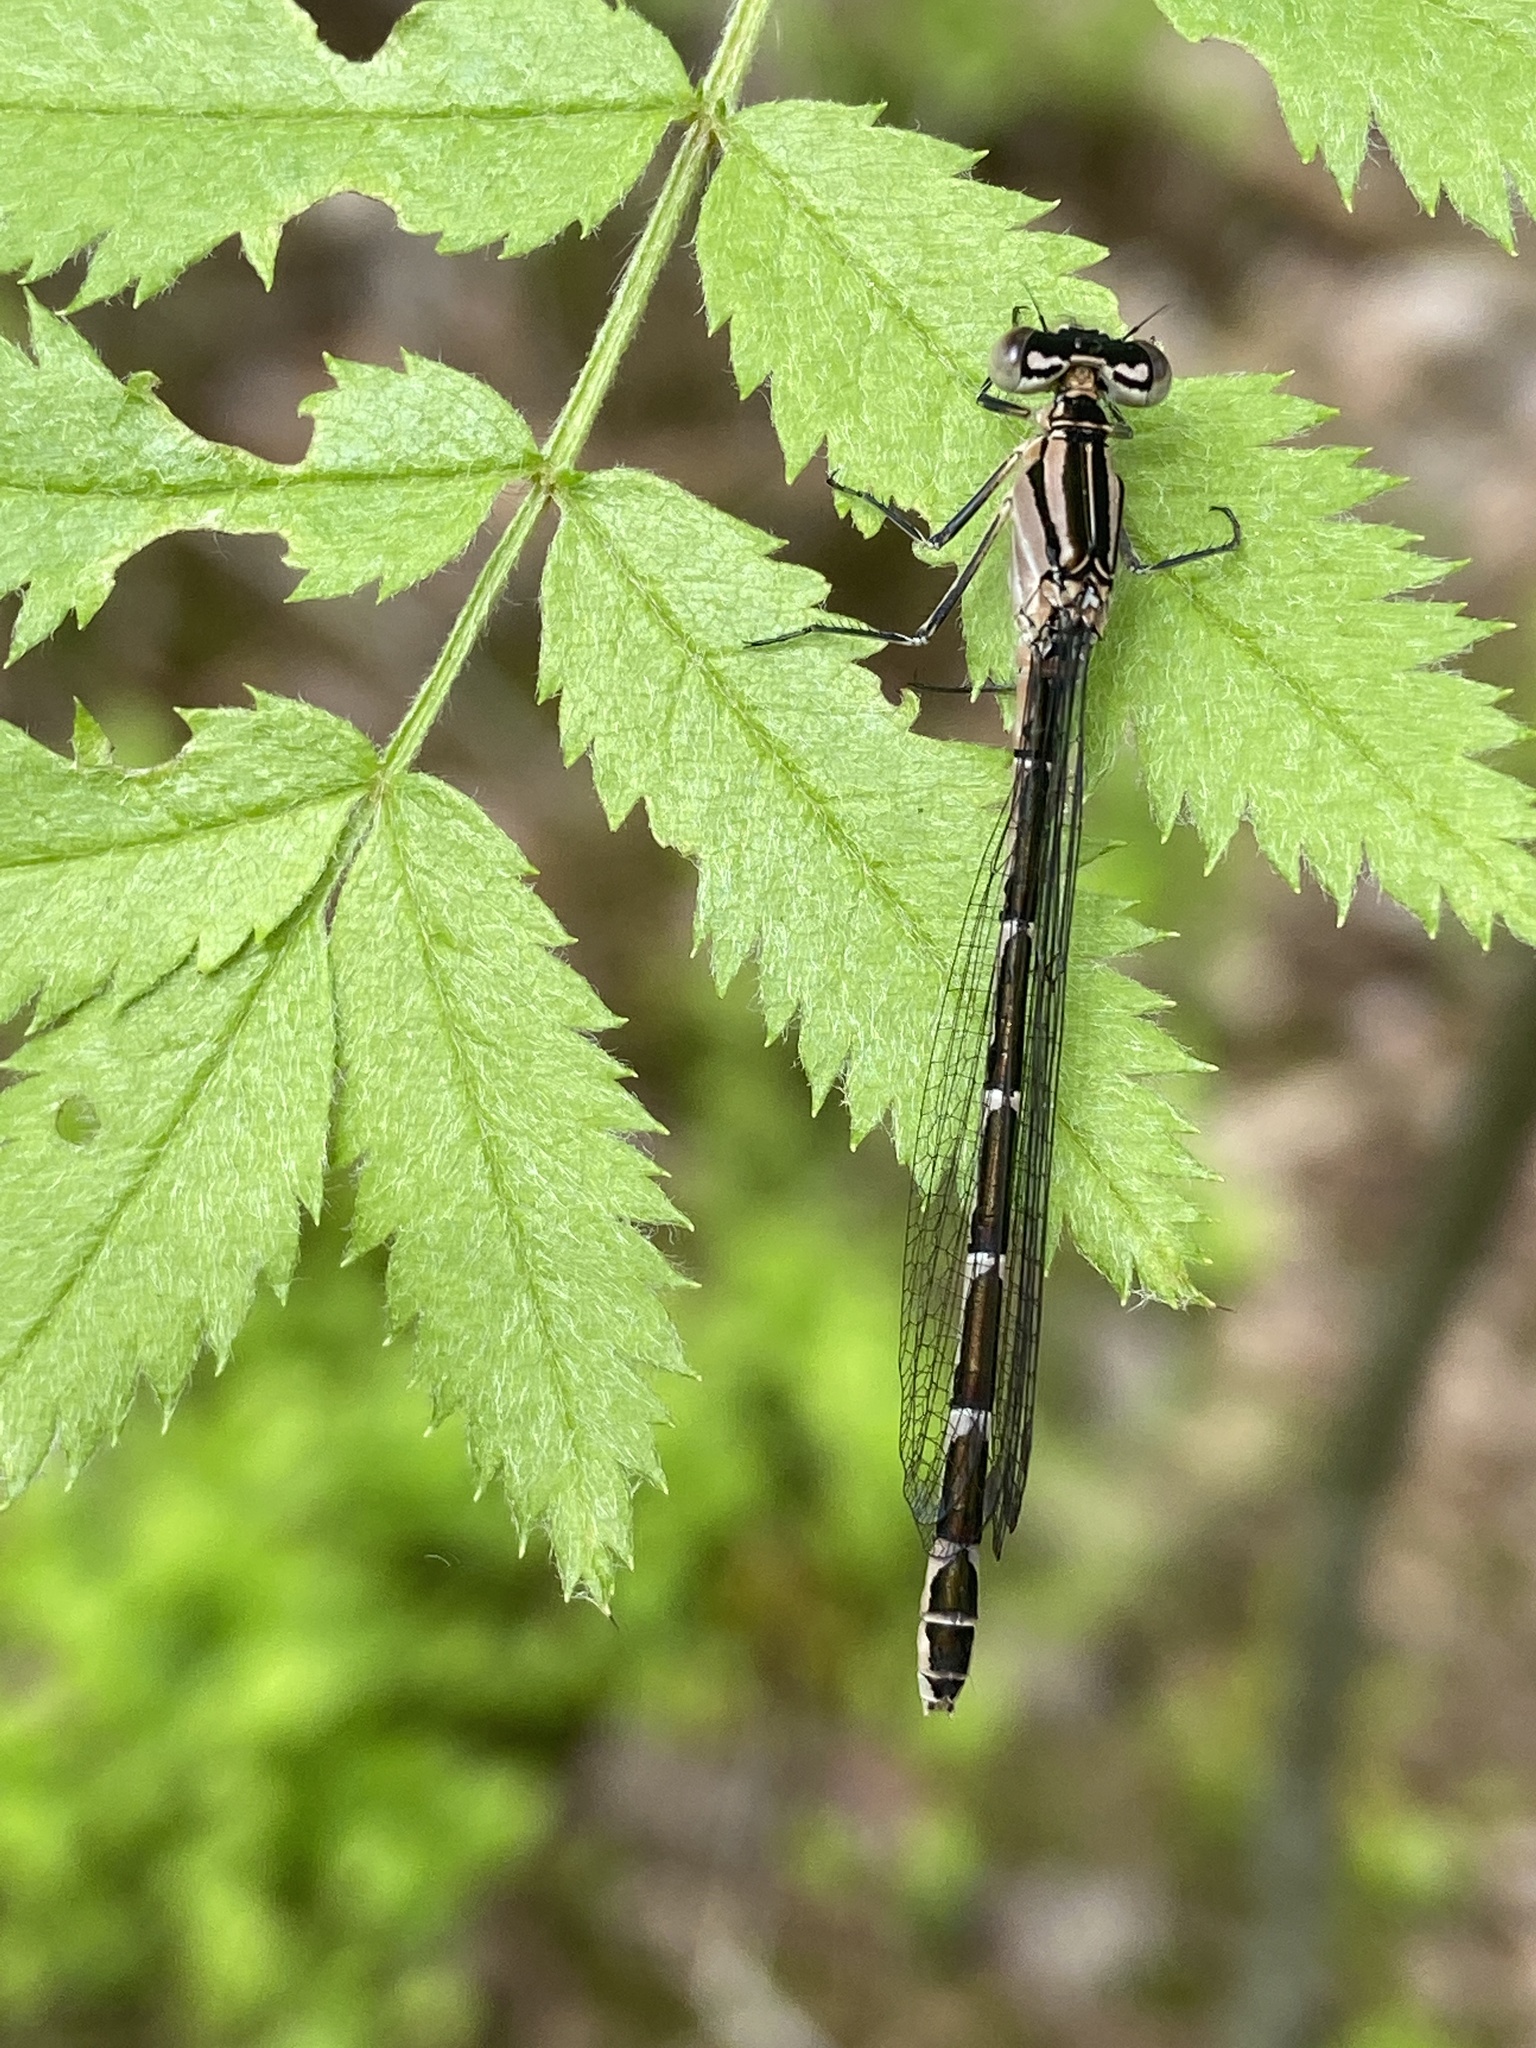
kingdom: Animalia
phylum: Arthropoda
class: Insecta
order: Odonata
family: Coenagrionidae
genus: Enallagma
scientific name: Enallagma cyathigerum
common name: Common blue damselfly
